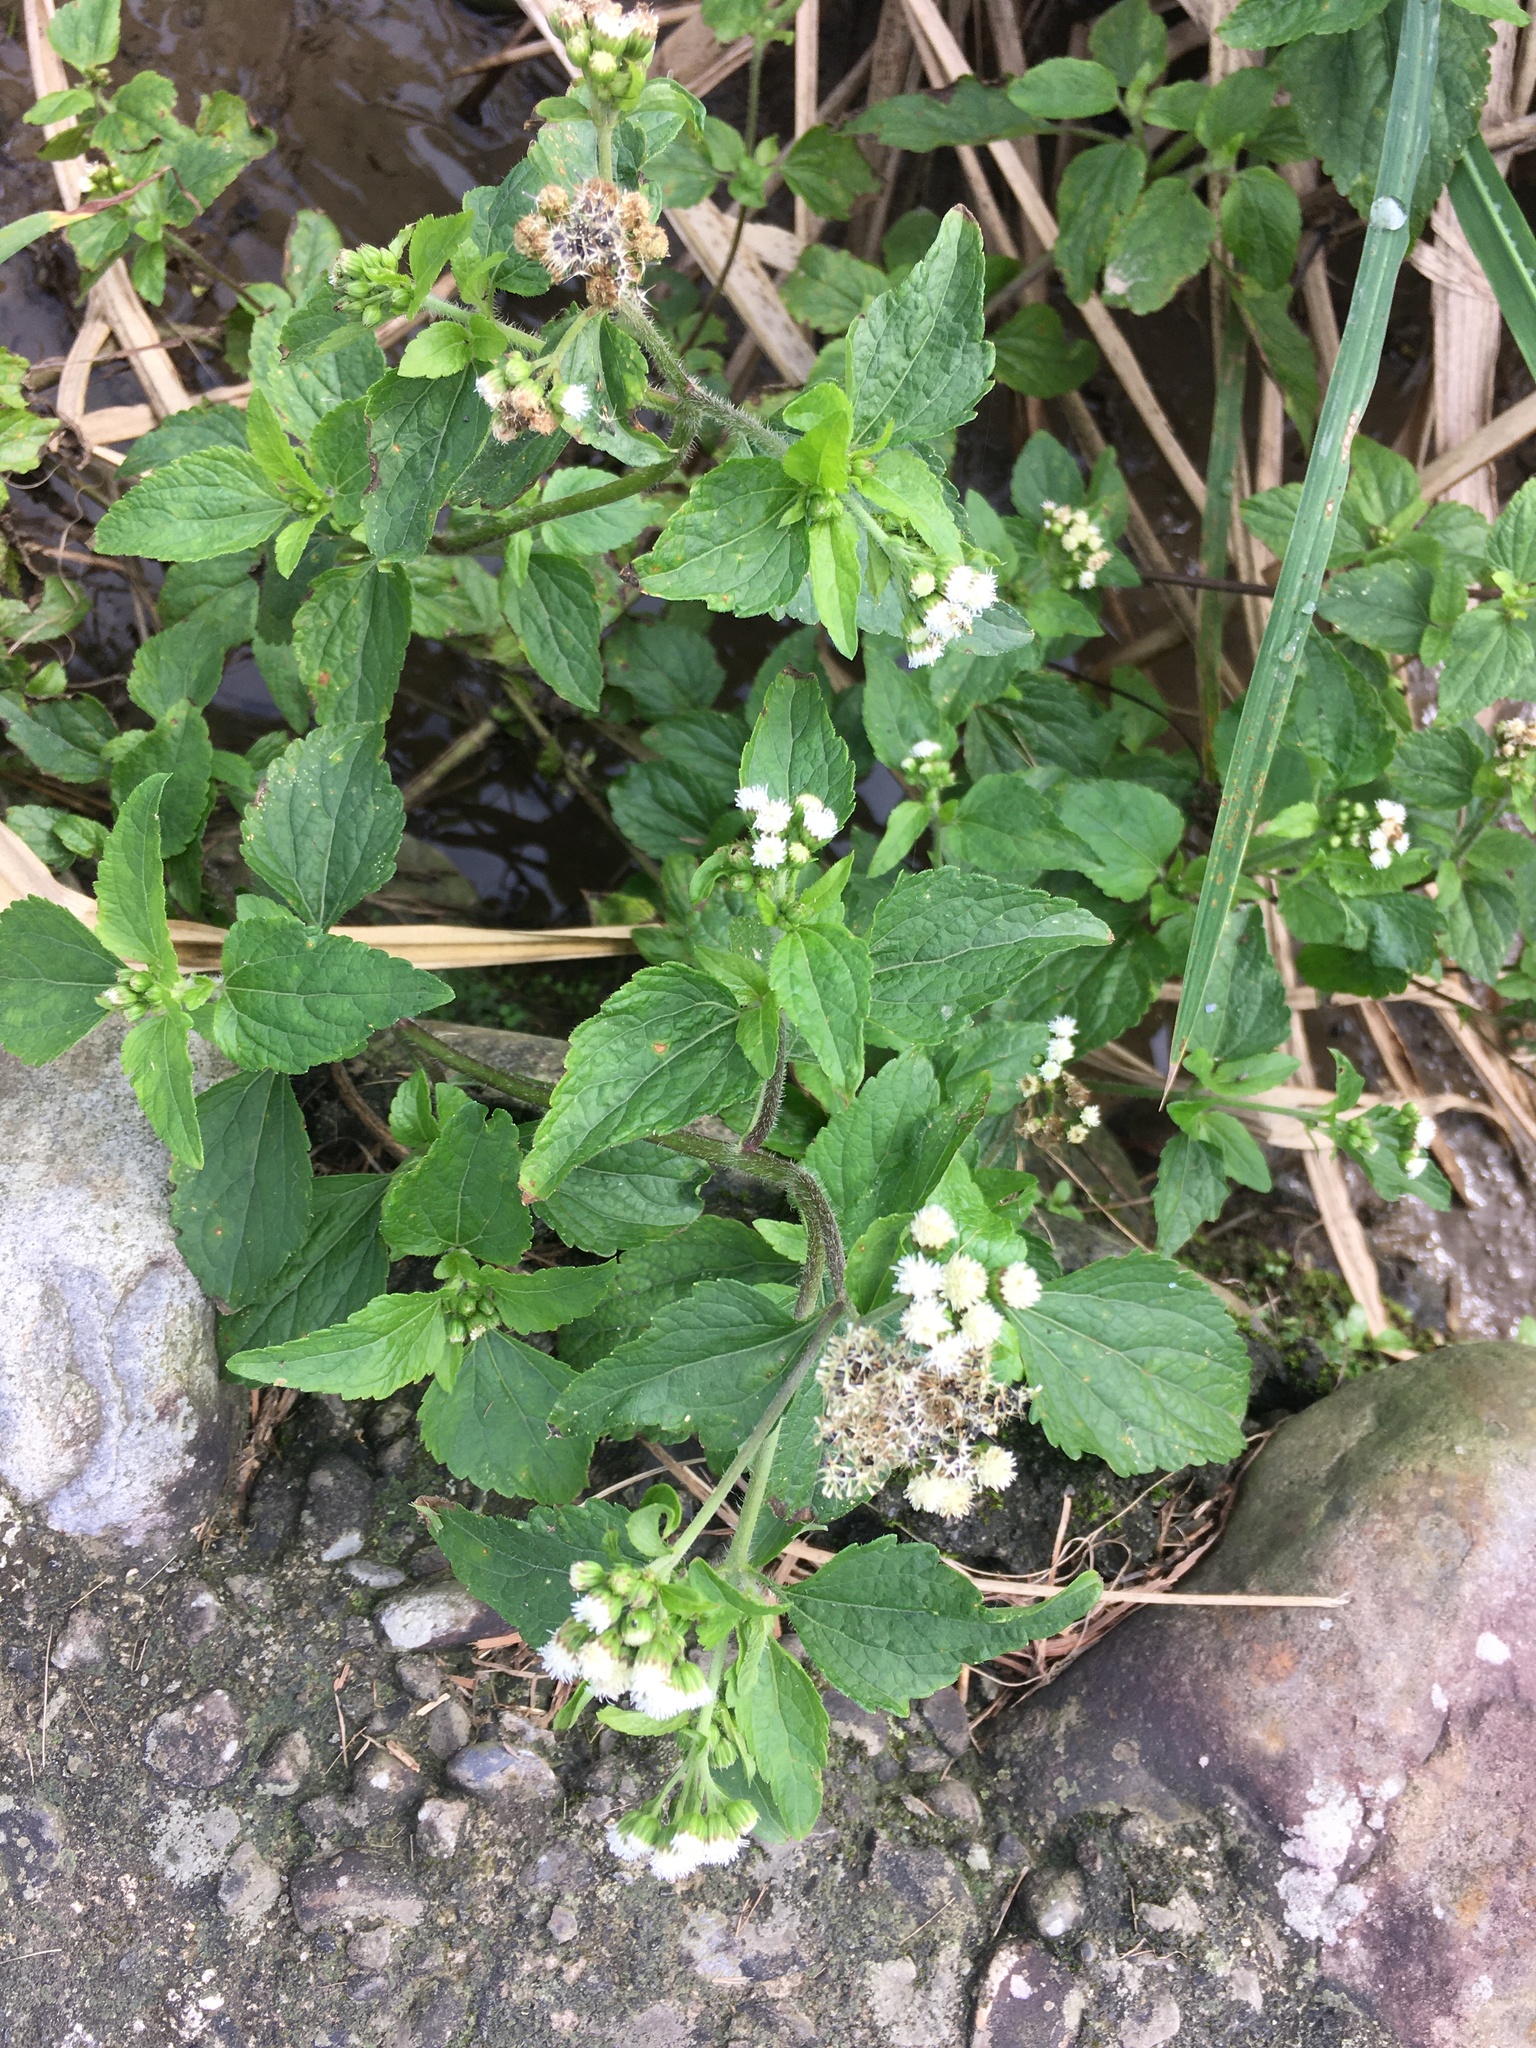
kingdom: Plantae
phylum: Tracheophyta
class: Magnoliopsida
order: Asterales
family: Asteraceae
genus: Ageratum
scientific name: Ageratum conyzoides
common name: Tropical whiteweed
